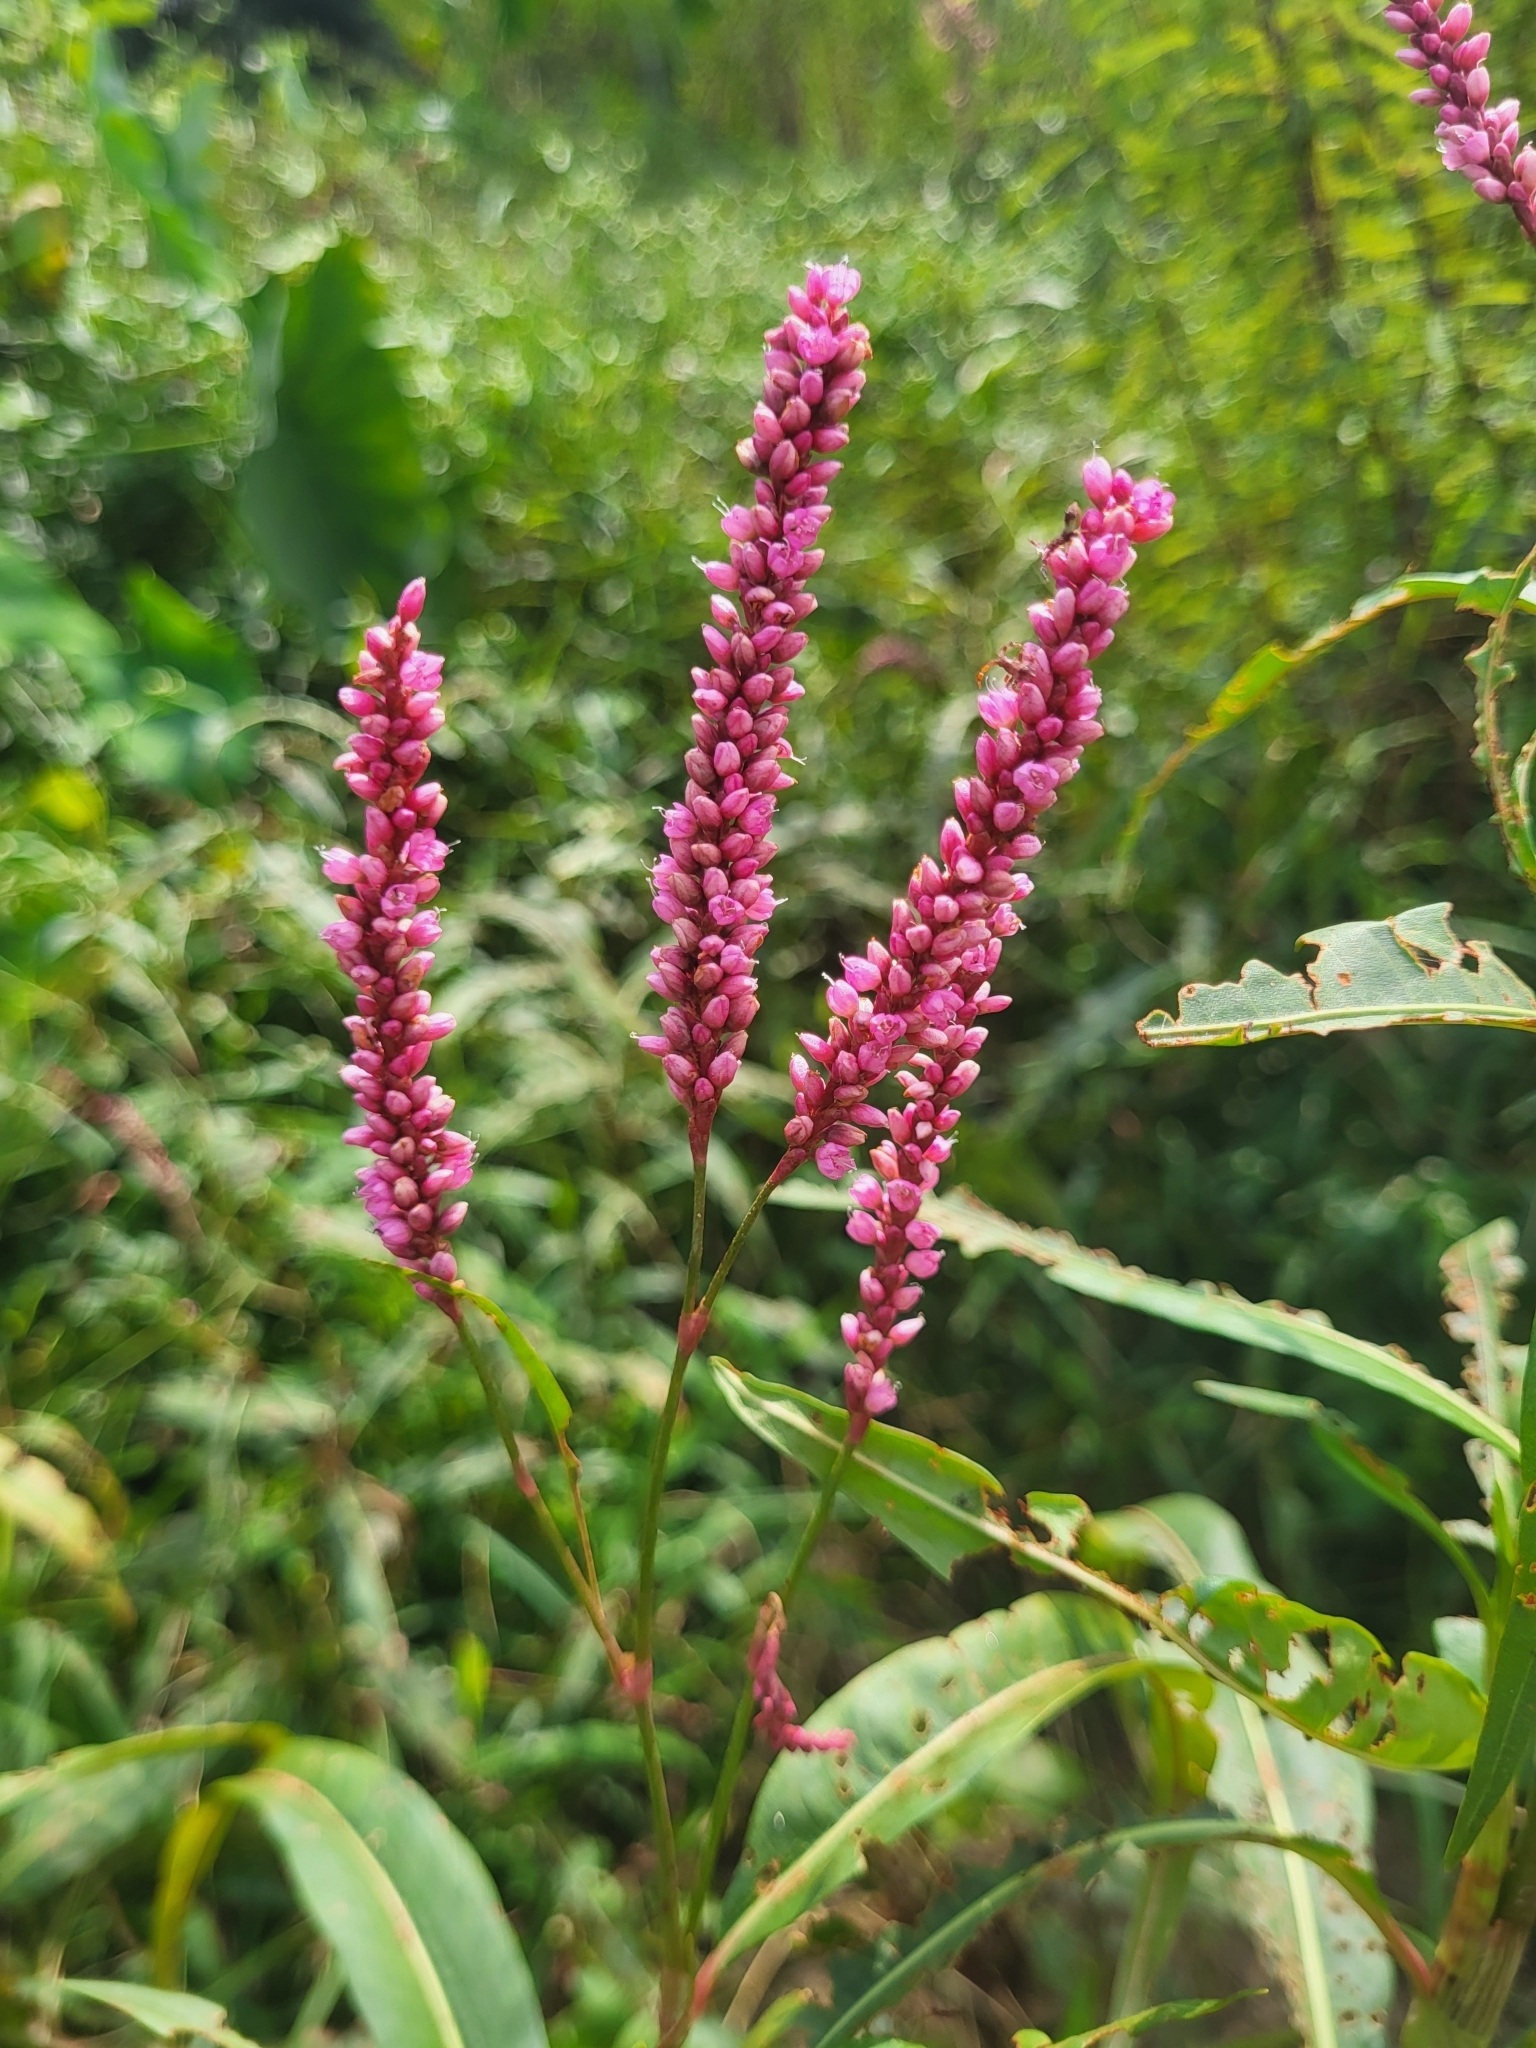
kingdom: Plantae
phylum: Tracheophyta
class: Magnoliopsida
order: Caryophyllales
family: Polygonaceae
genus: Persicaria
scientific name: Persicaria glabra
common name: Denseflower knotweed
